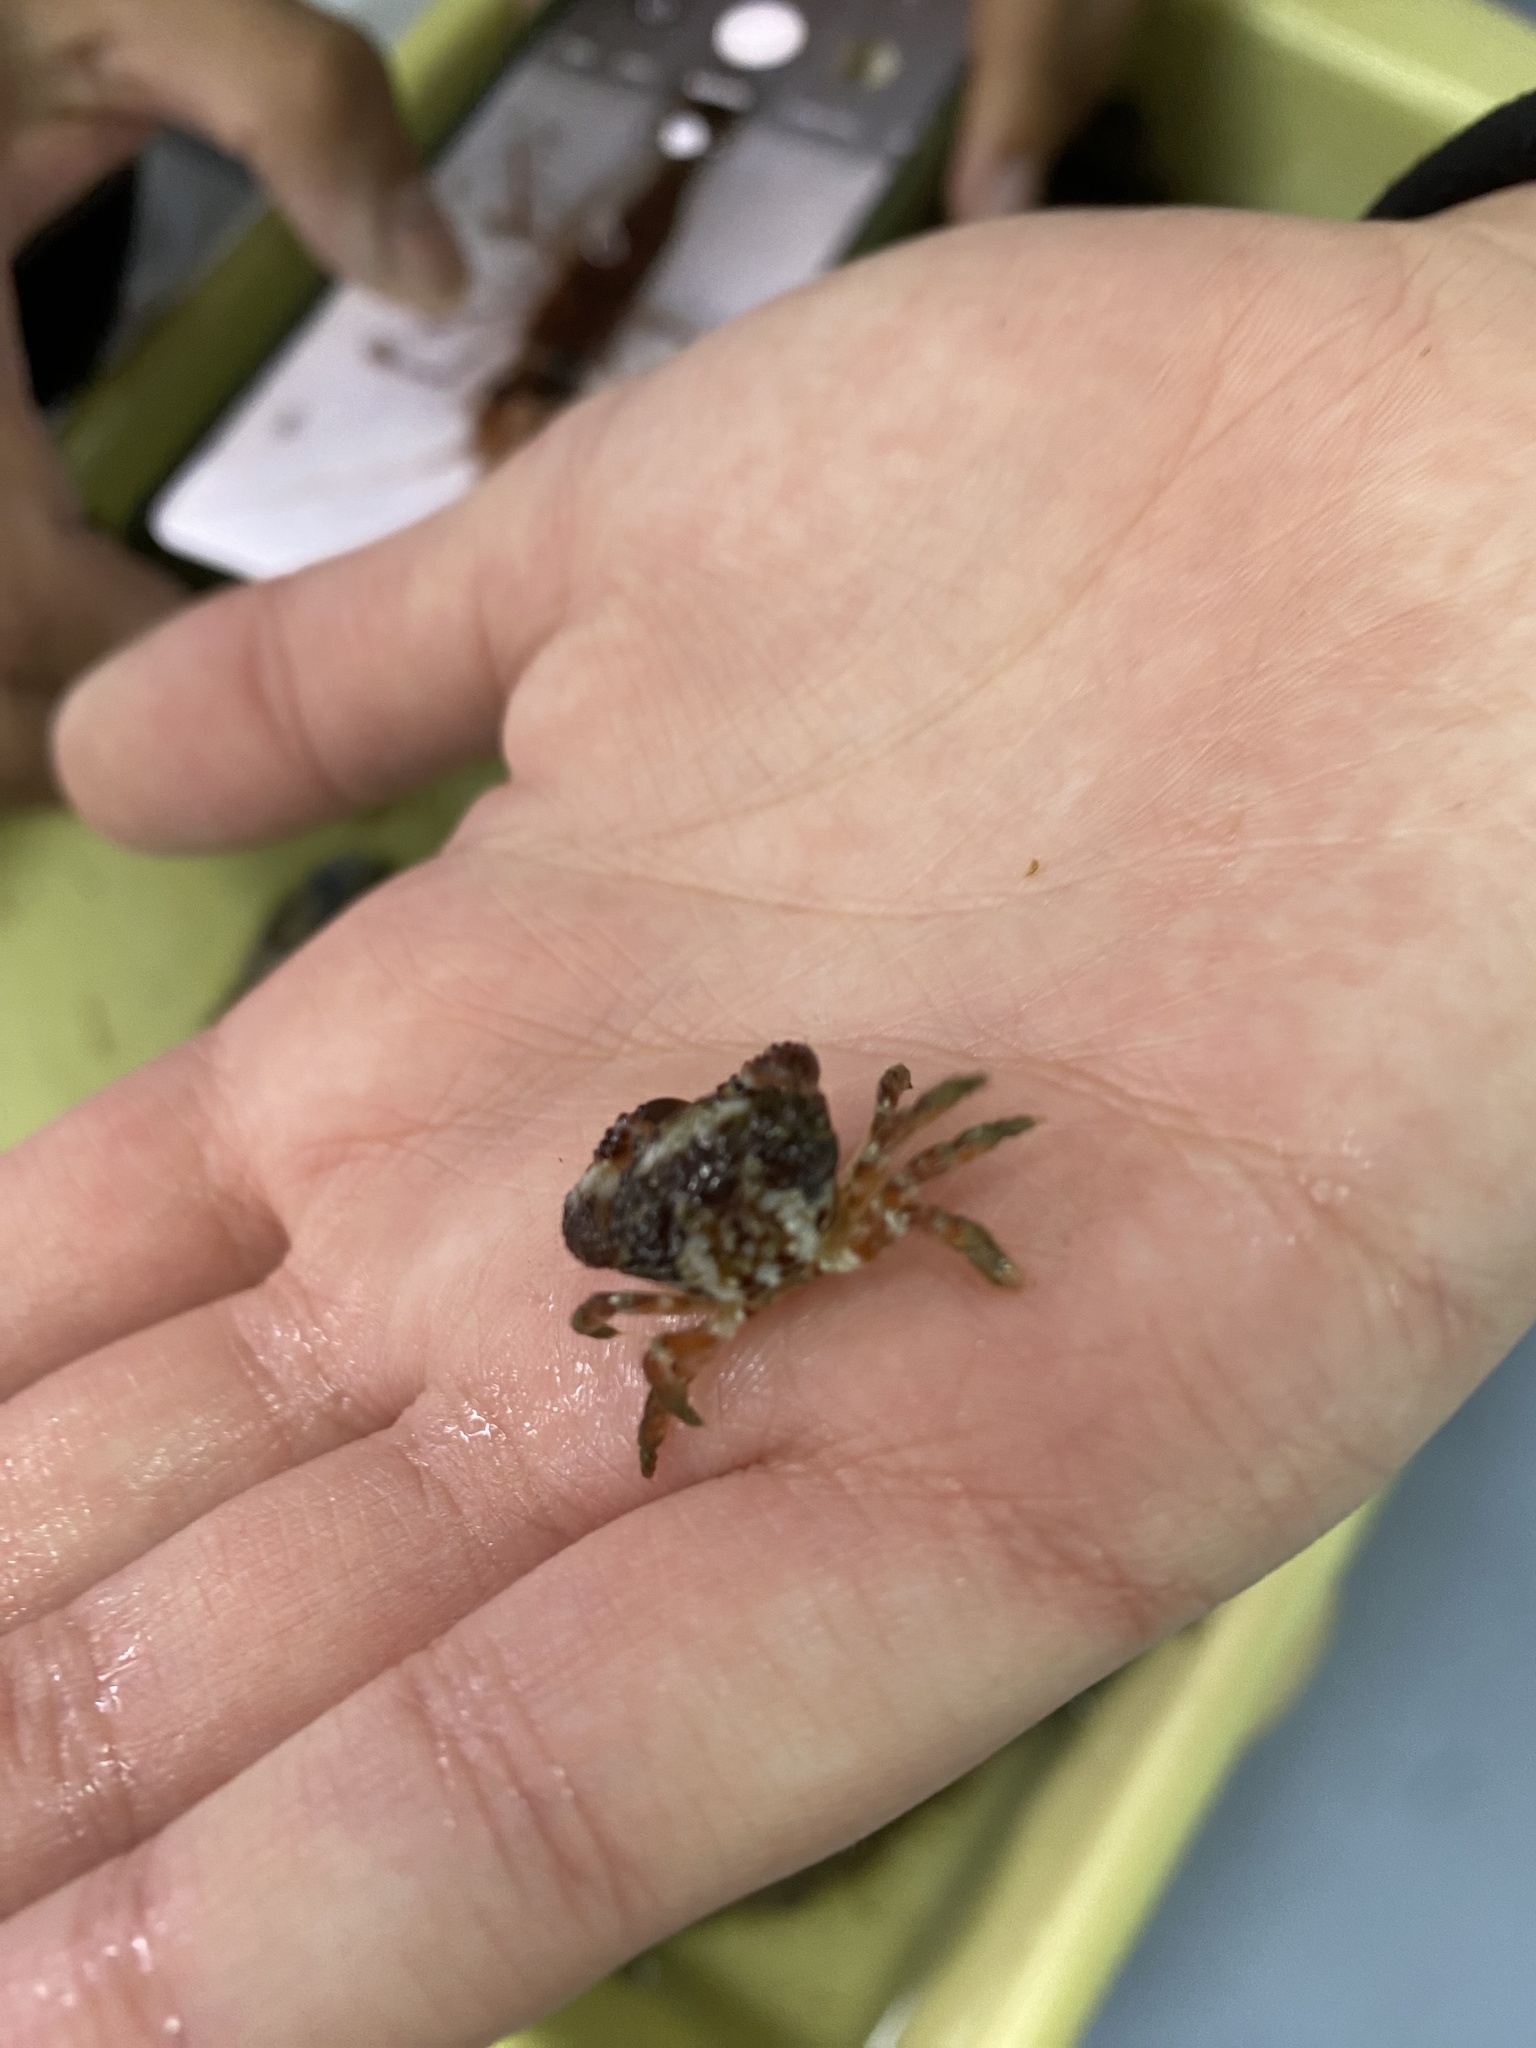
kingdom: Animalia
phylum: Arthropoda
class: Malacostraca
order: Decapoda
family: Pilumnoididae
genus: Pilumnoides
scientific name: Pilumnoides perlatus
